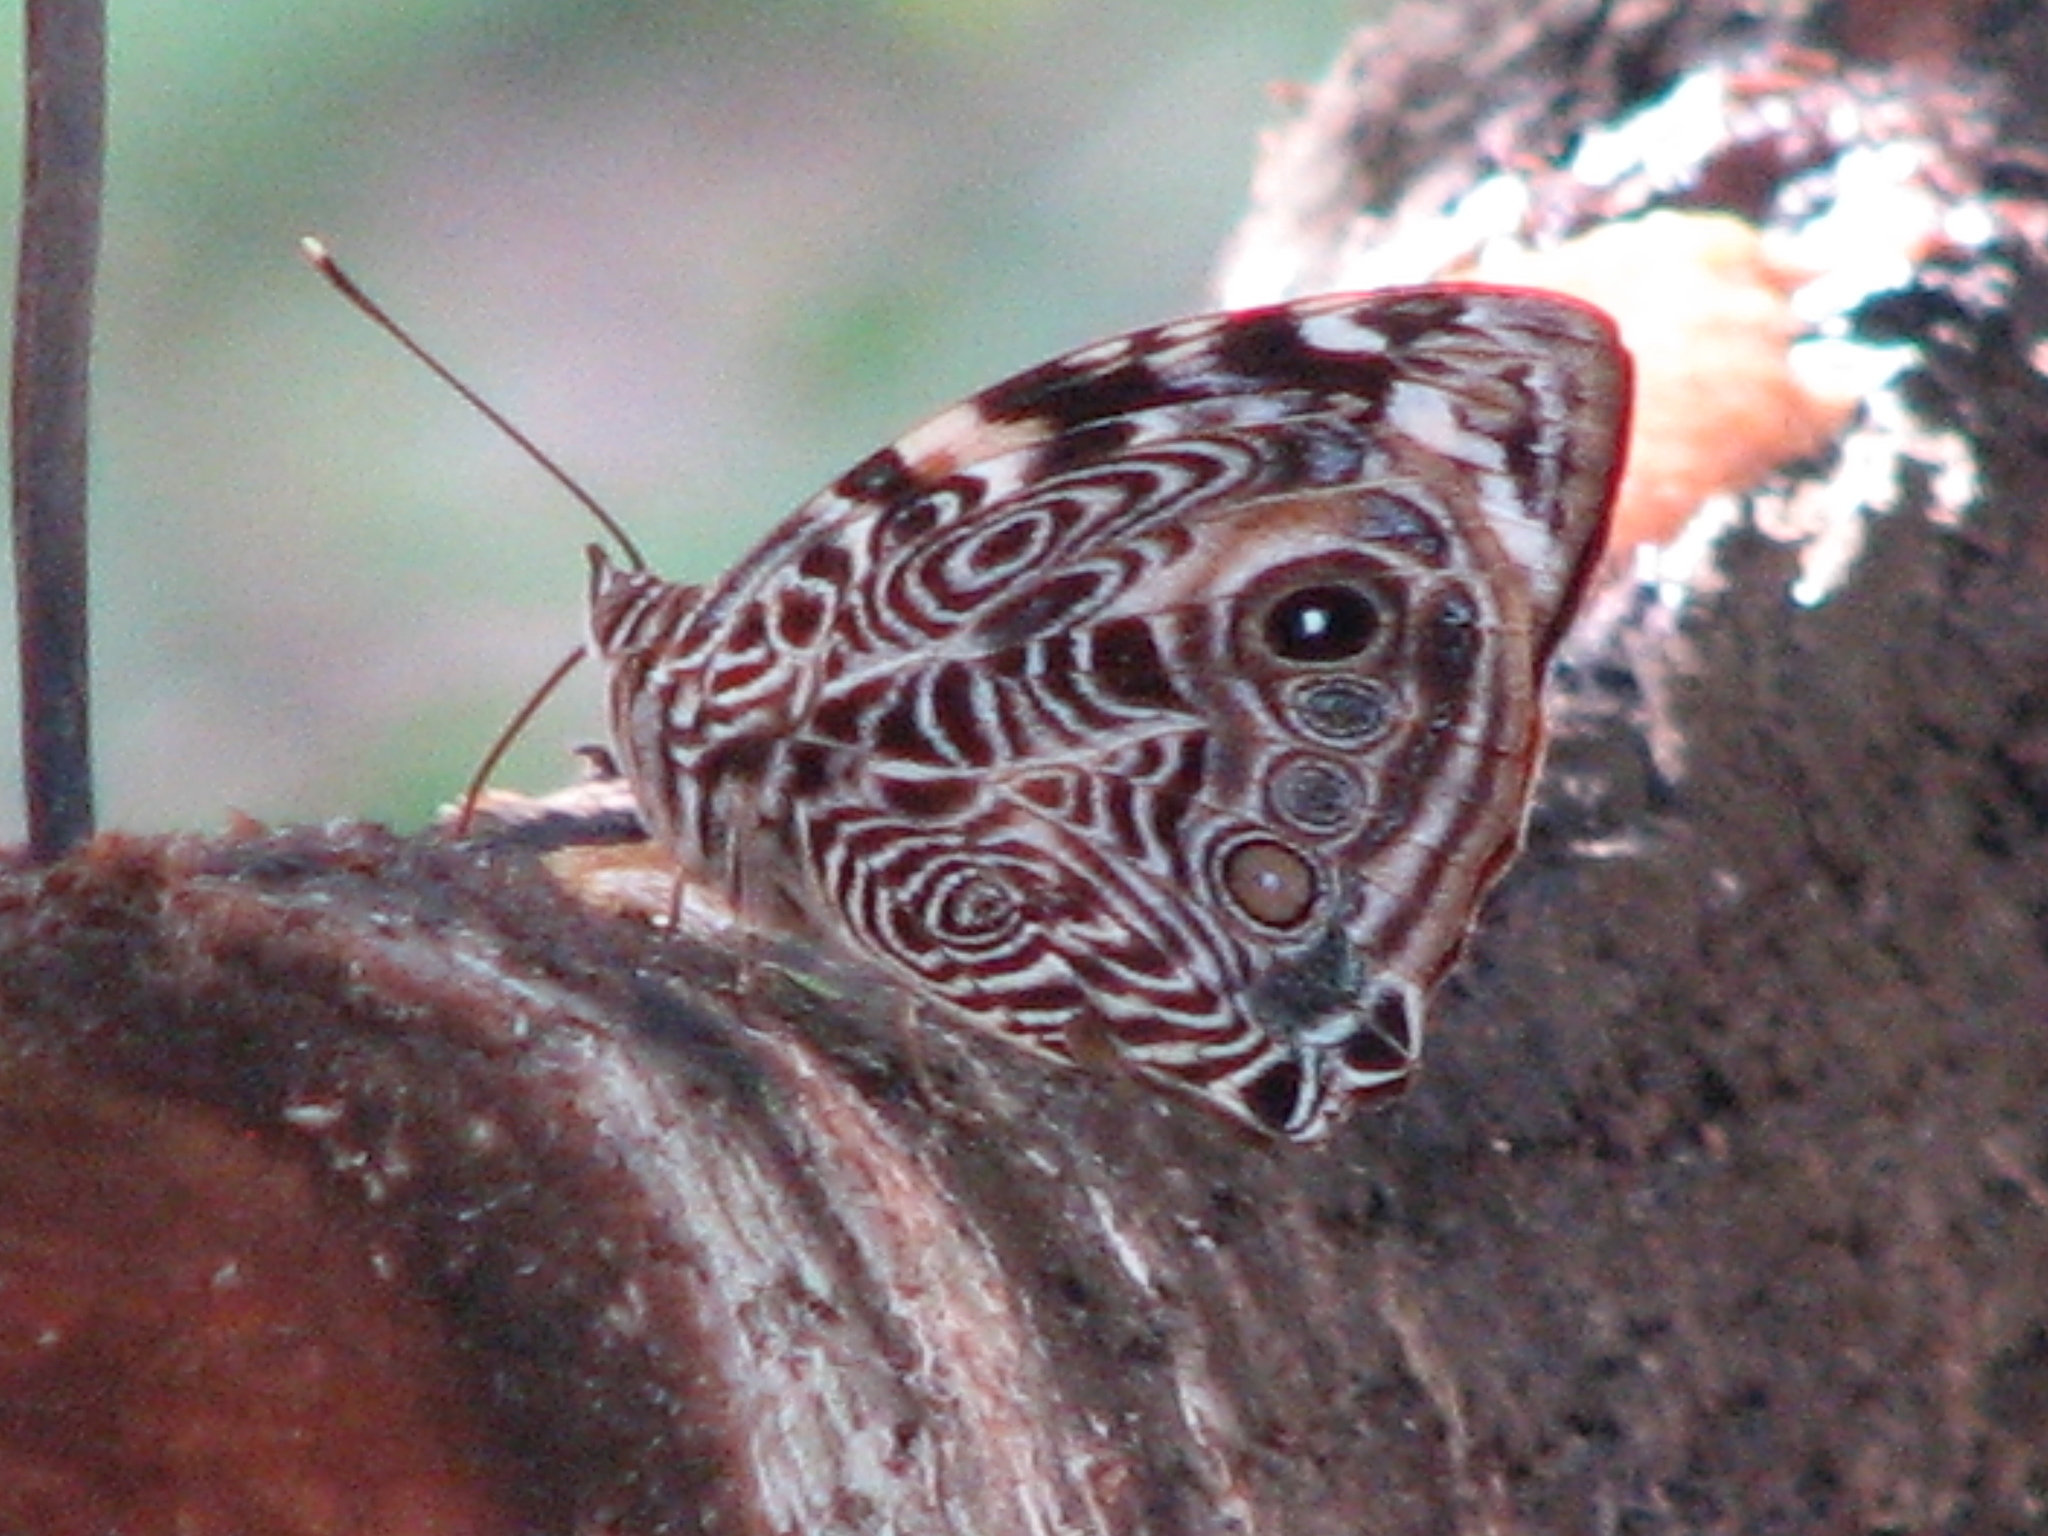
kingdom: Animalia
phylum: Arthropoda
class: Insecta
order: Lepidoptera
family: Nymphalidae
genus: Smyrna
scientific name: Smyrna blomfildia
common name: Blomfild's beauty
